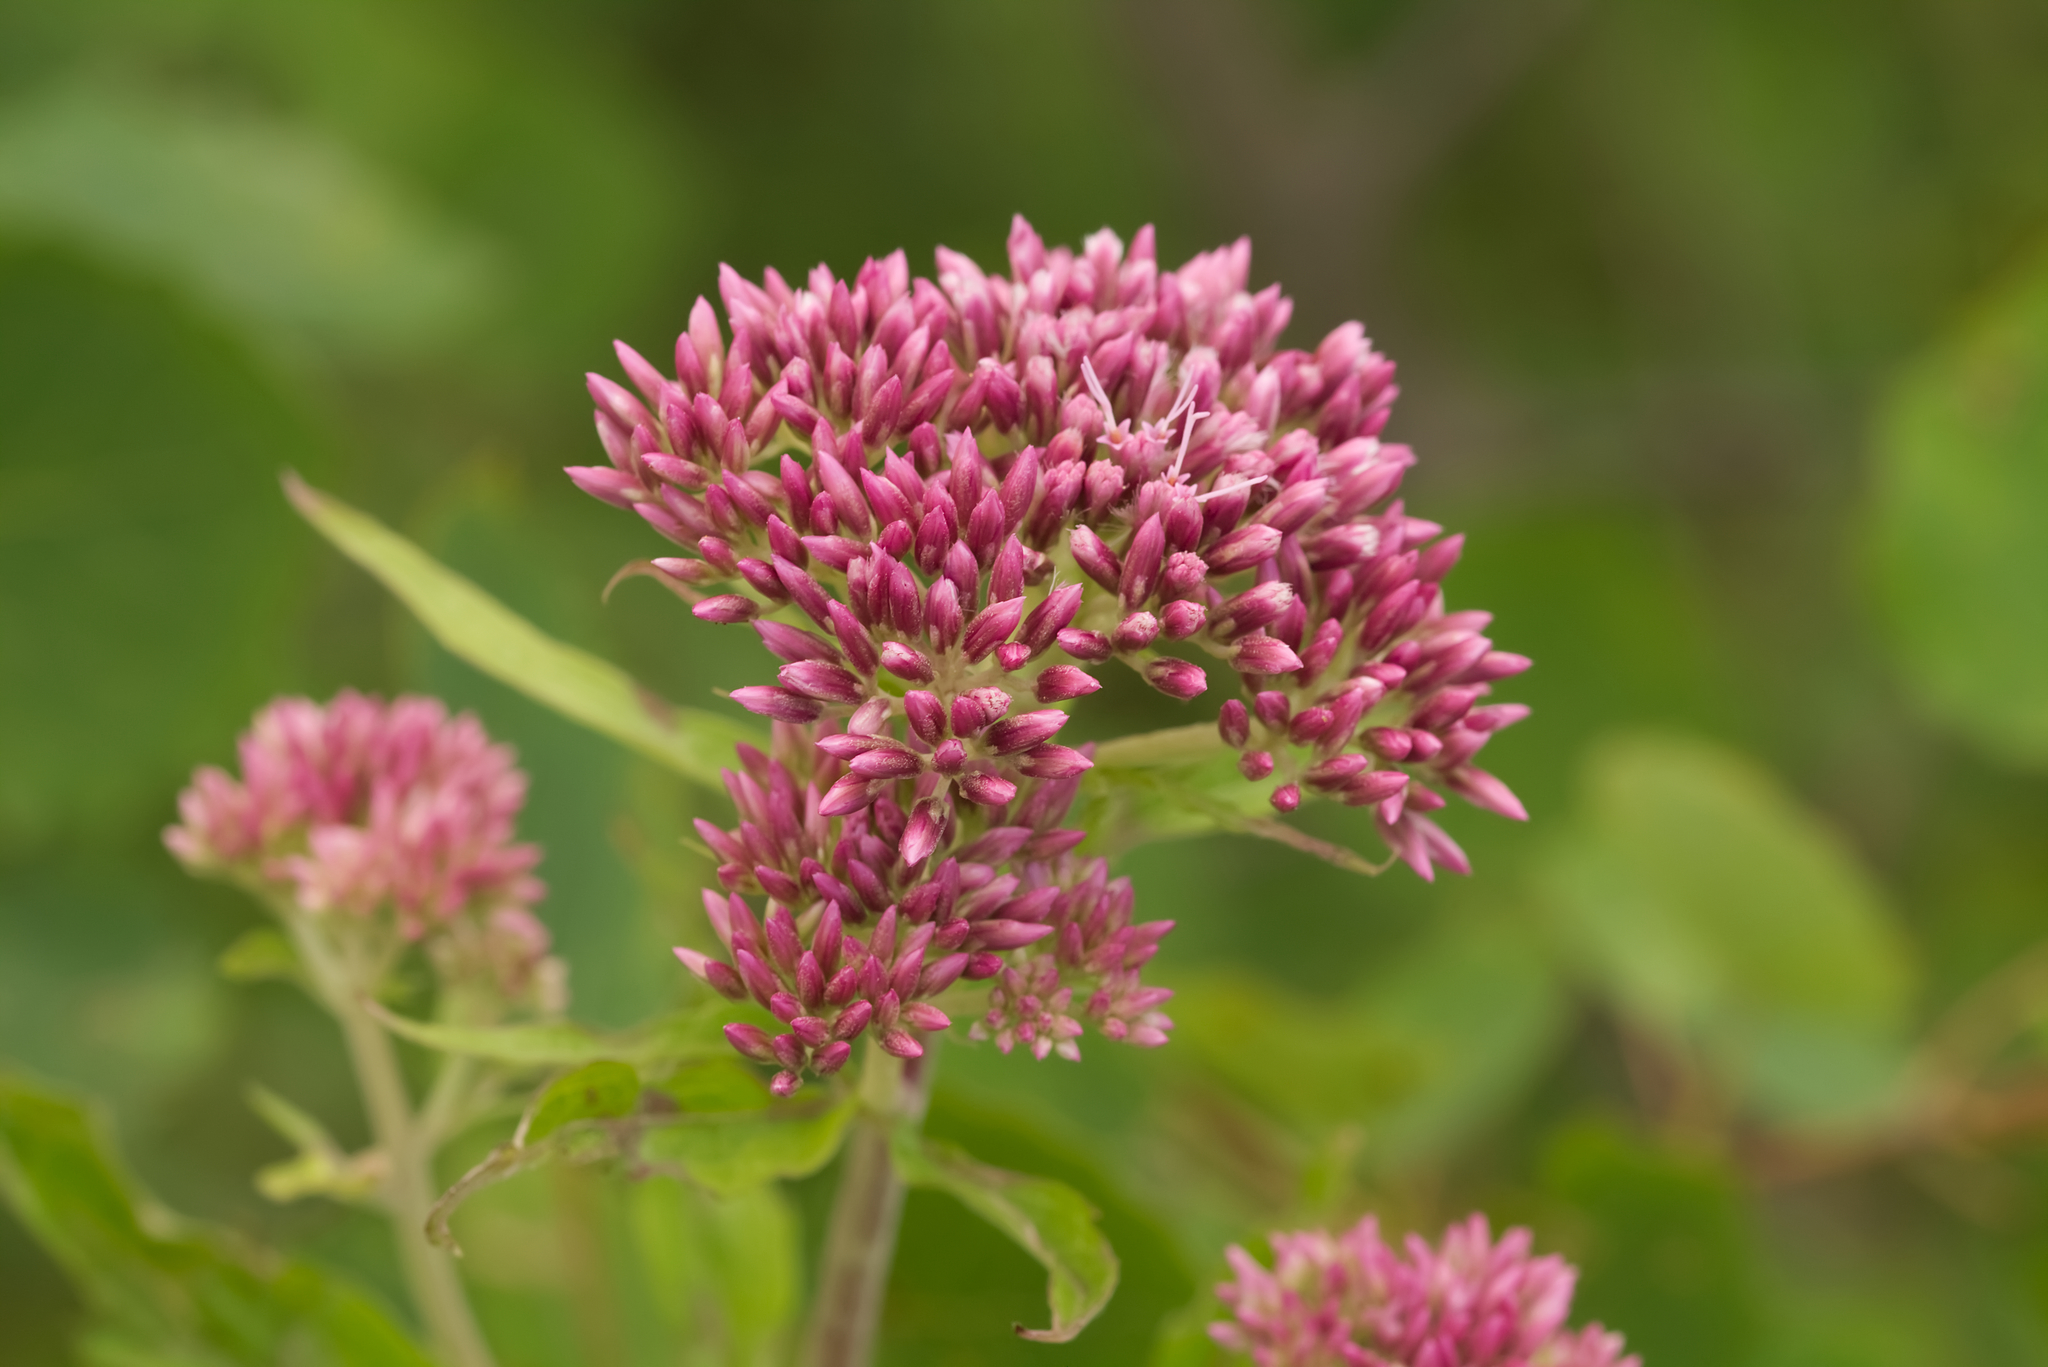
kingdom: Plantae
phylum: Tracheophyta
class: Magnoliopsida
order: Asterales
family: Asteraceae
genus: Eupatorium
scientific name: Eupatorium cannabinum
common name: Hemp-agrimony
